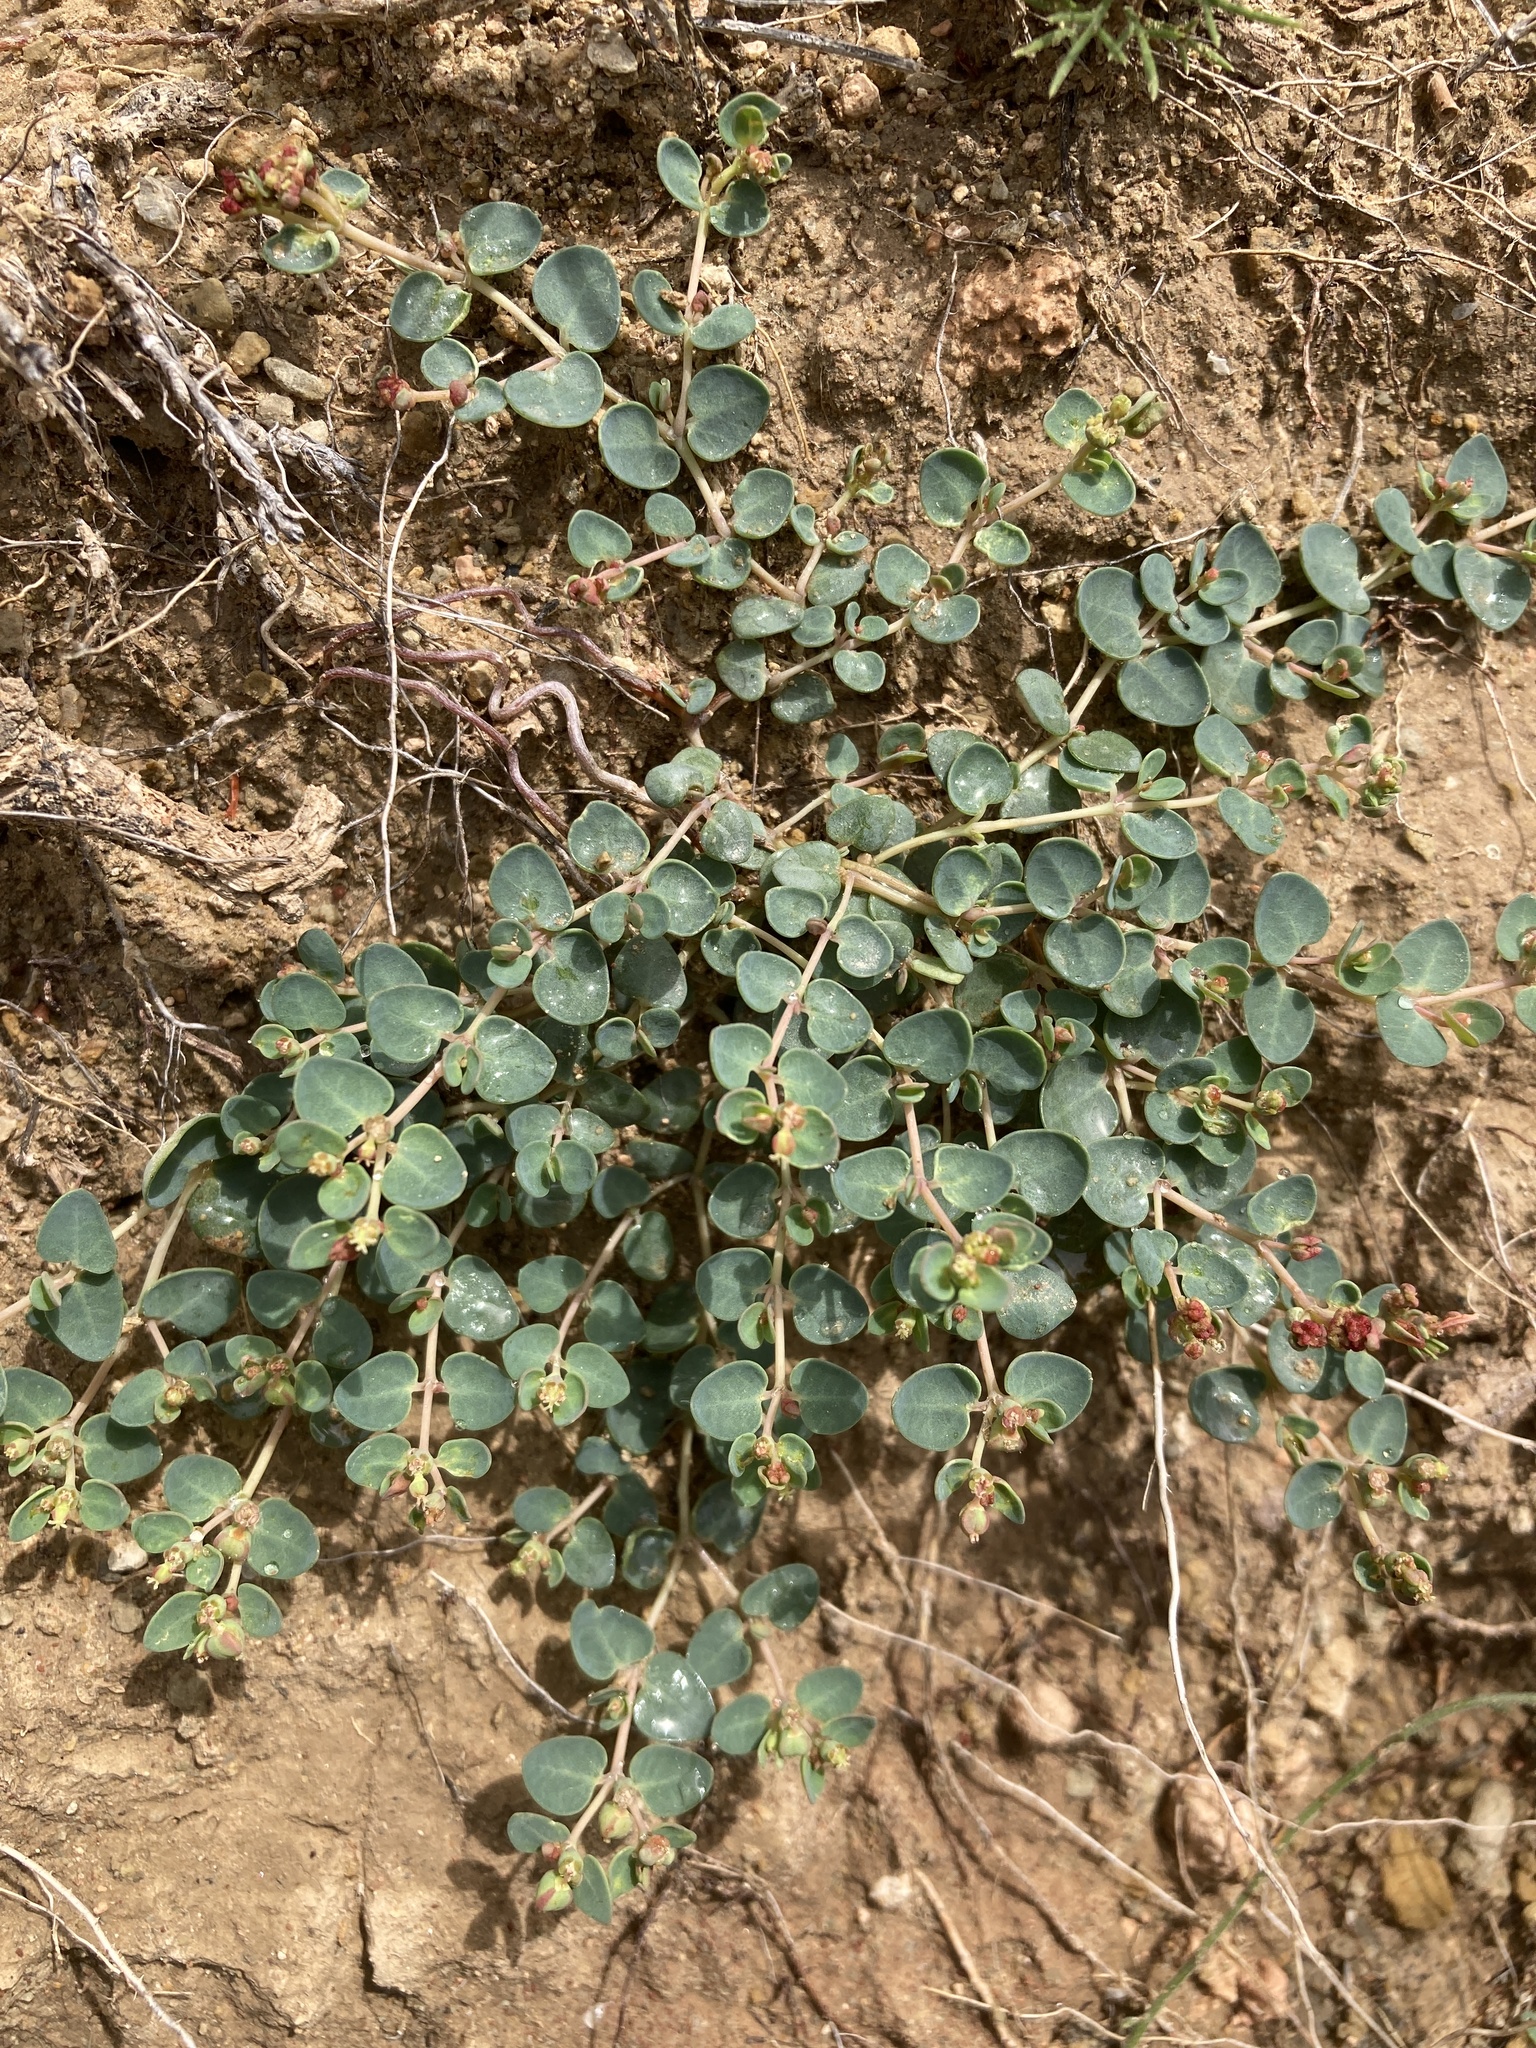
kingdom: Plantae
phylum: Tracheophyta
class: Magnoliopsida
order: Malpighiales
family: Euphorbiaceae
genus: Euphorbia
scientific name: Euphorbia fendleri
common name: Fendler's euphorbia
